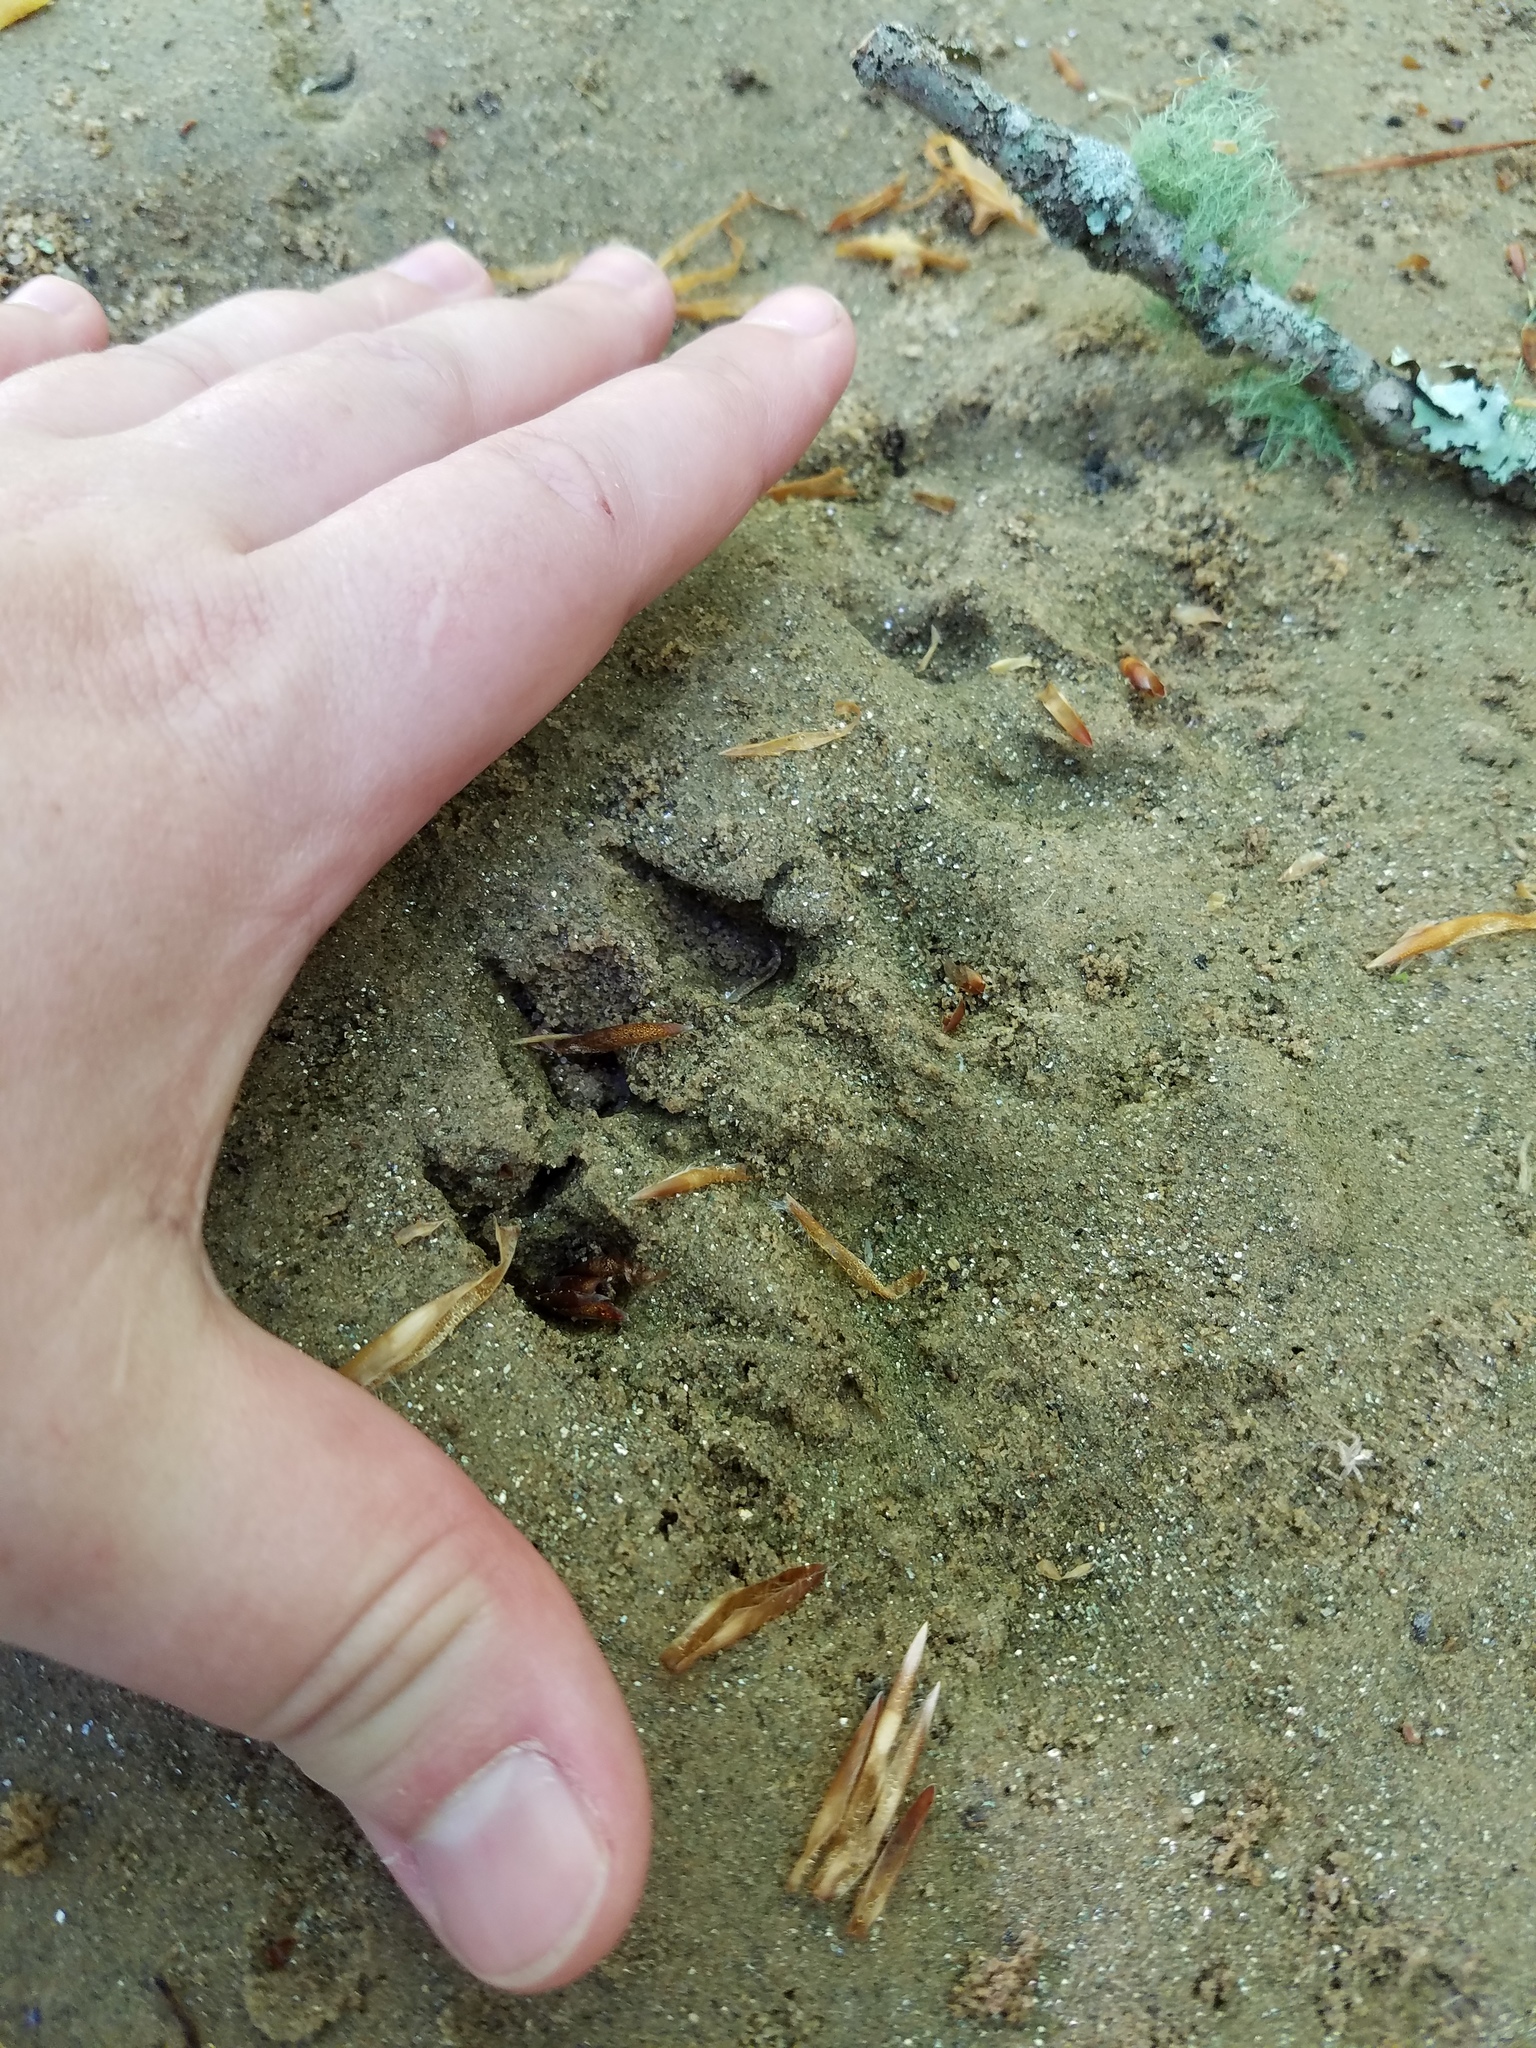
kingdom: Animalia
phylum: Chordata
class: Mammalia
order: Carnivora
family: Mustelidae
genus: Lontra
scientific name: Lontra canadensis
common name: North american river otter
